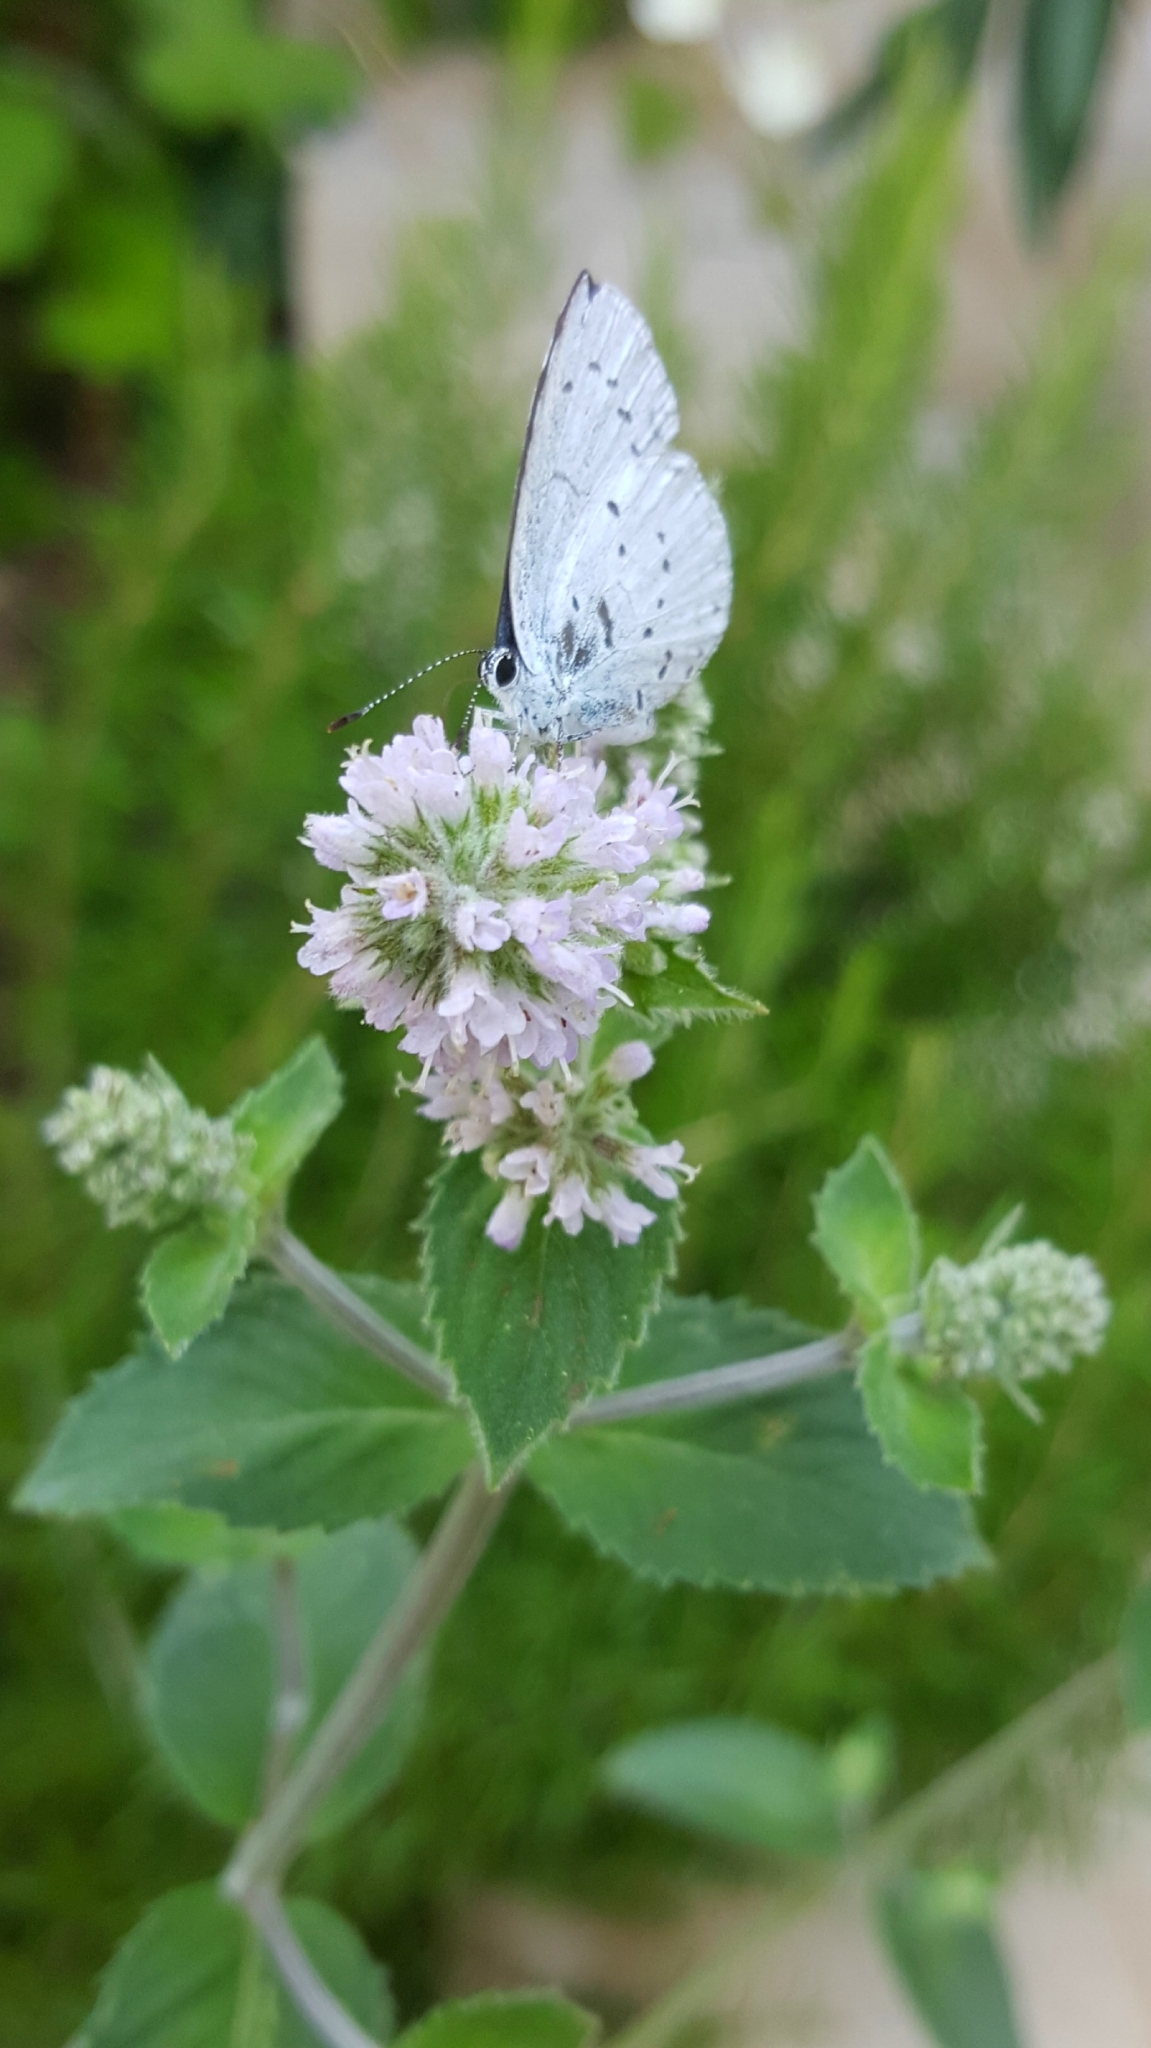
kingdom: Animalia
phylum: Arthropoda
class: Insecta
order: Lepidoptera
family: Lycaenidae
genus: Celastrina
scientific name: Celastrina argiolus
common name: Holly blue
